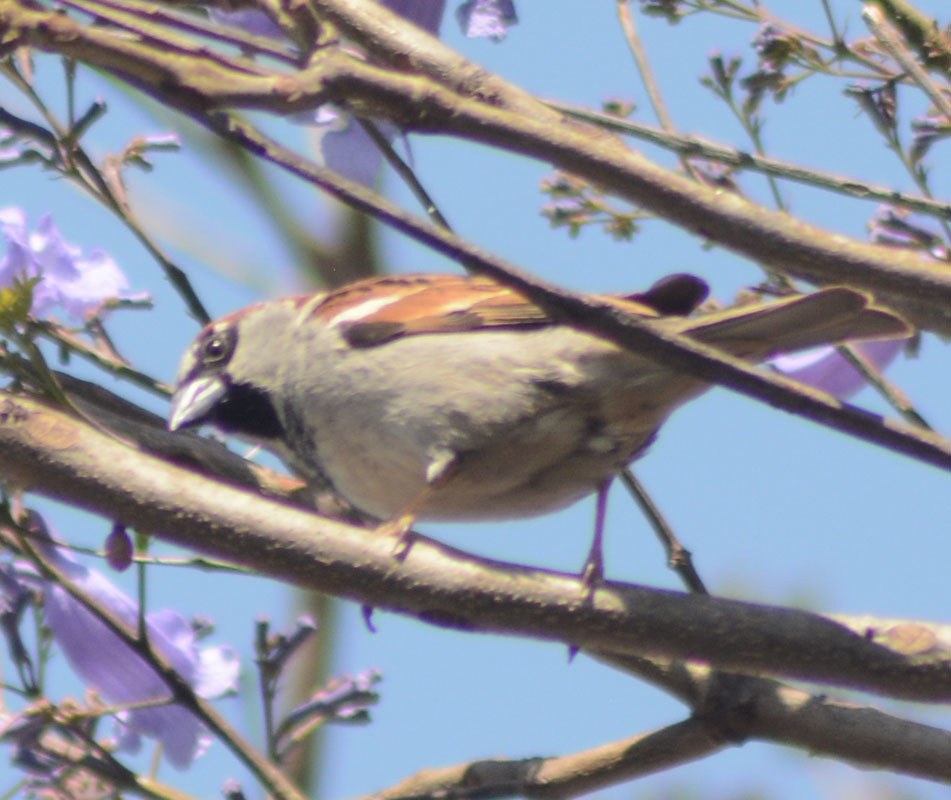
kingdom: Animalia
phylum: Chordata
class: Aves
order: Passeriformes
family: Passeridae
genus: Passer
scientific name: Passer domesticus
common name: House sparrow
